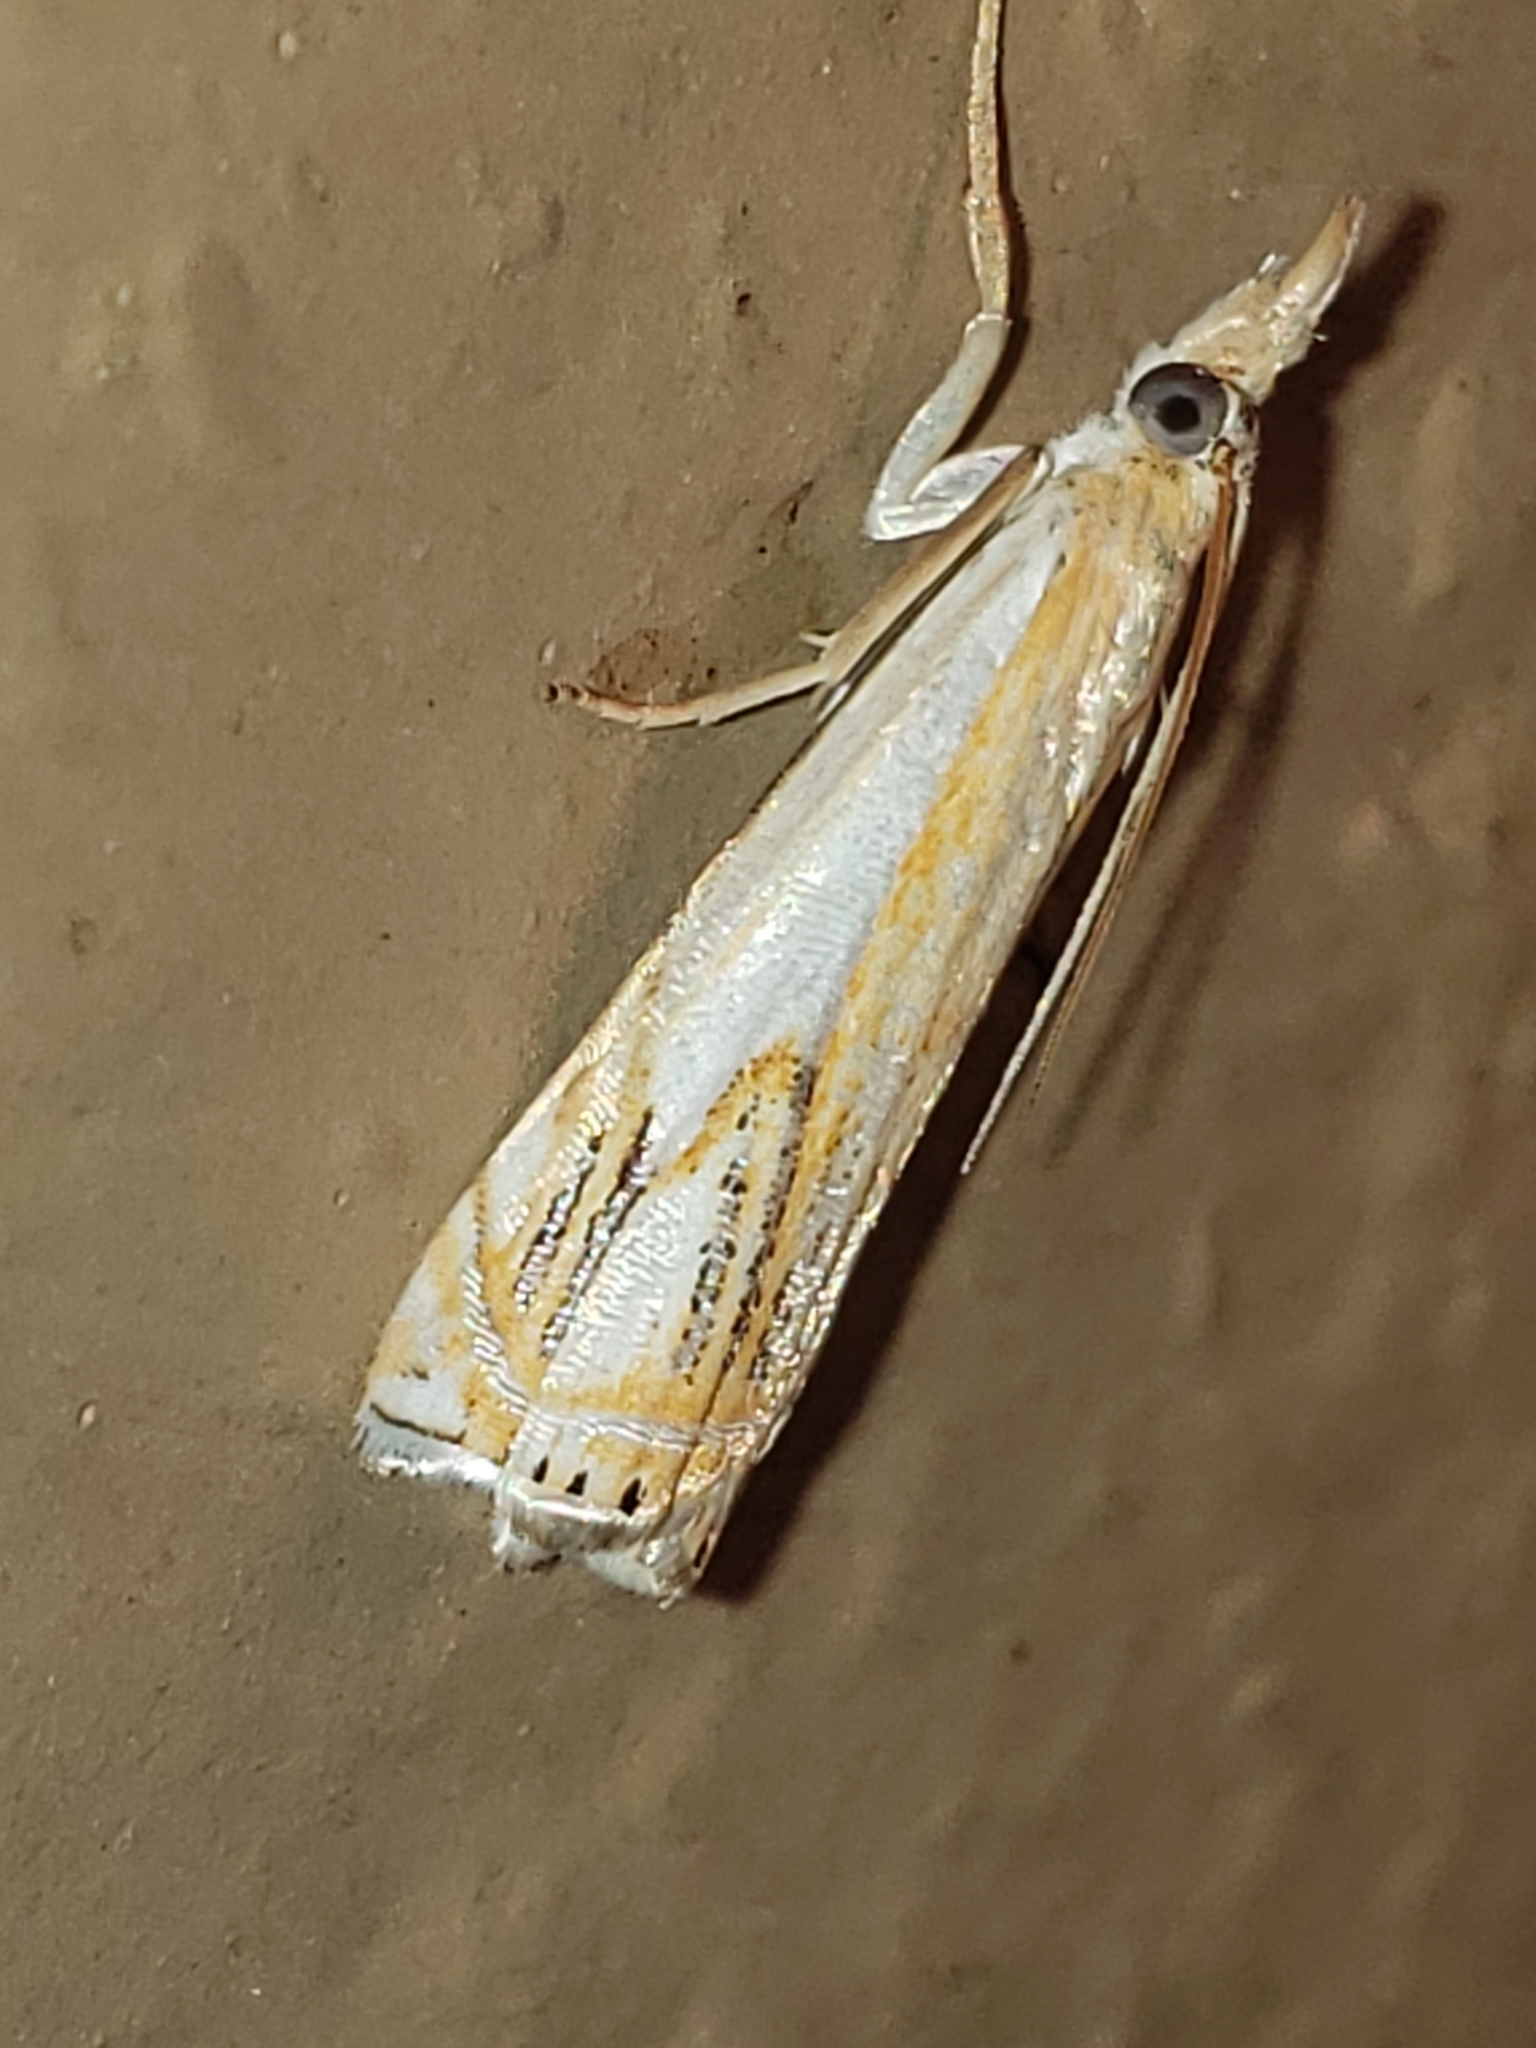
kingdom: Animalia
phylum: Arthropoda
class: Insecta
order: Lepidoptera
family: Crambidae
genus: Crambus
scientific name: Crambus agitatellus
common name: Double-banded grass-veneer
